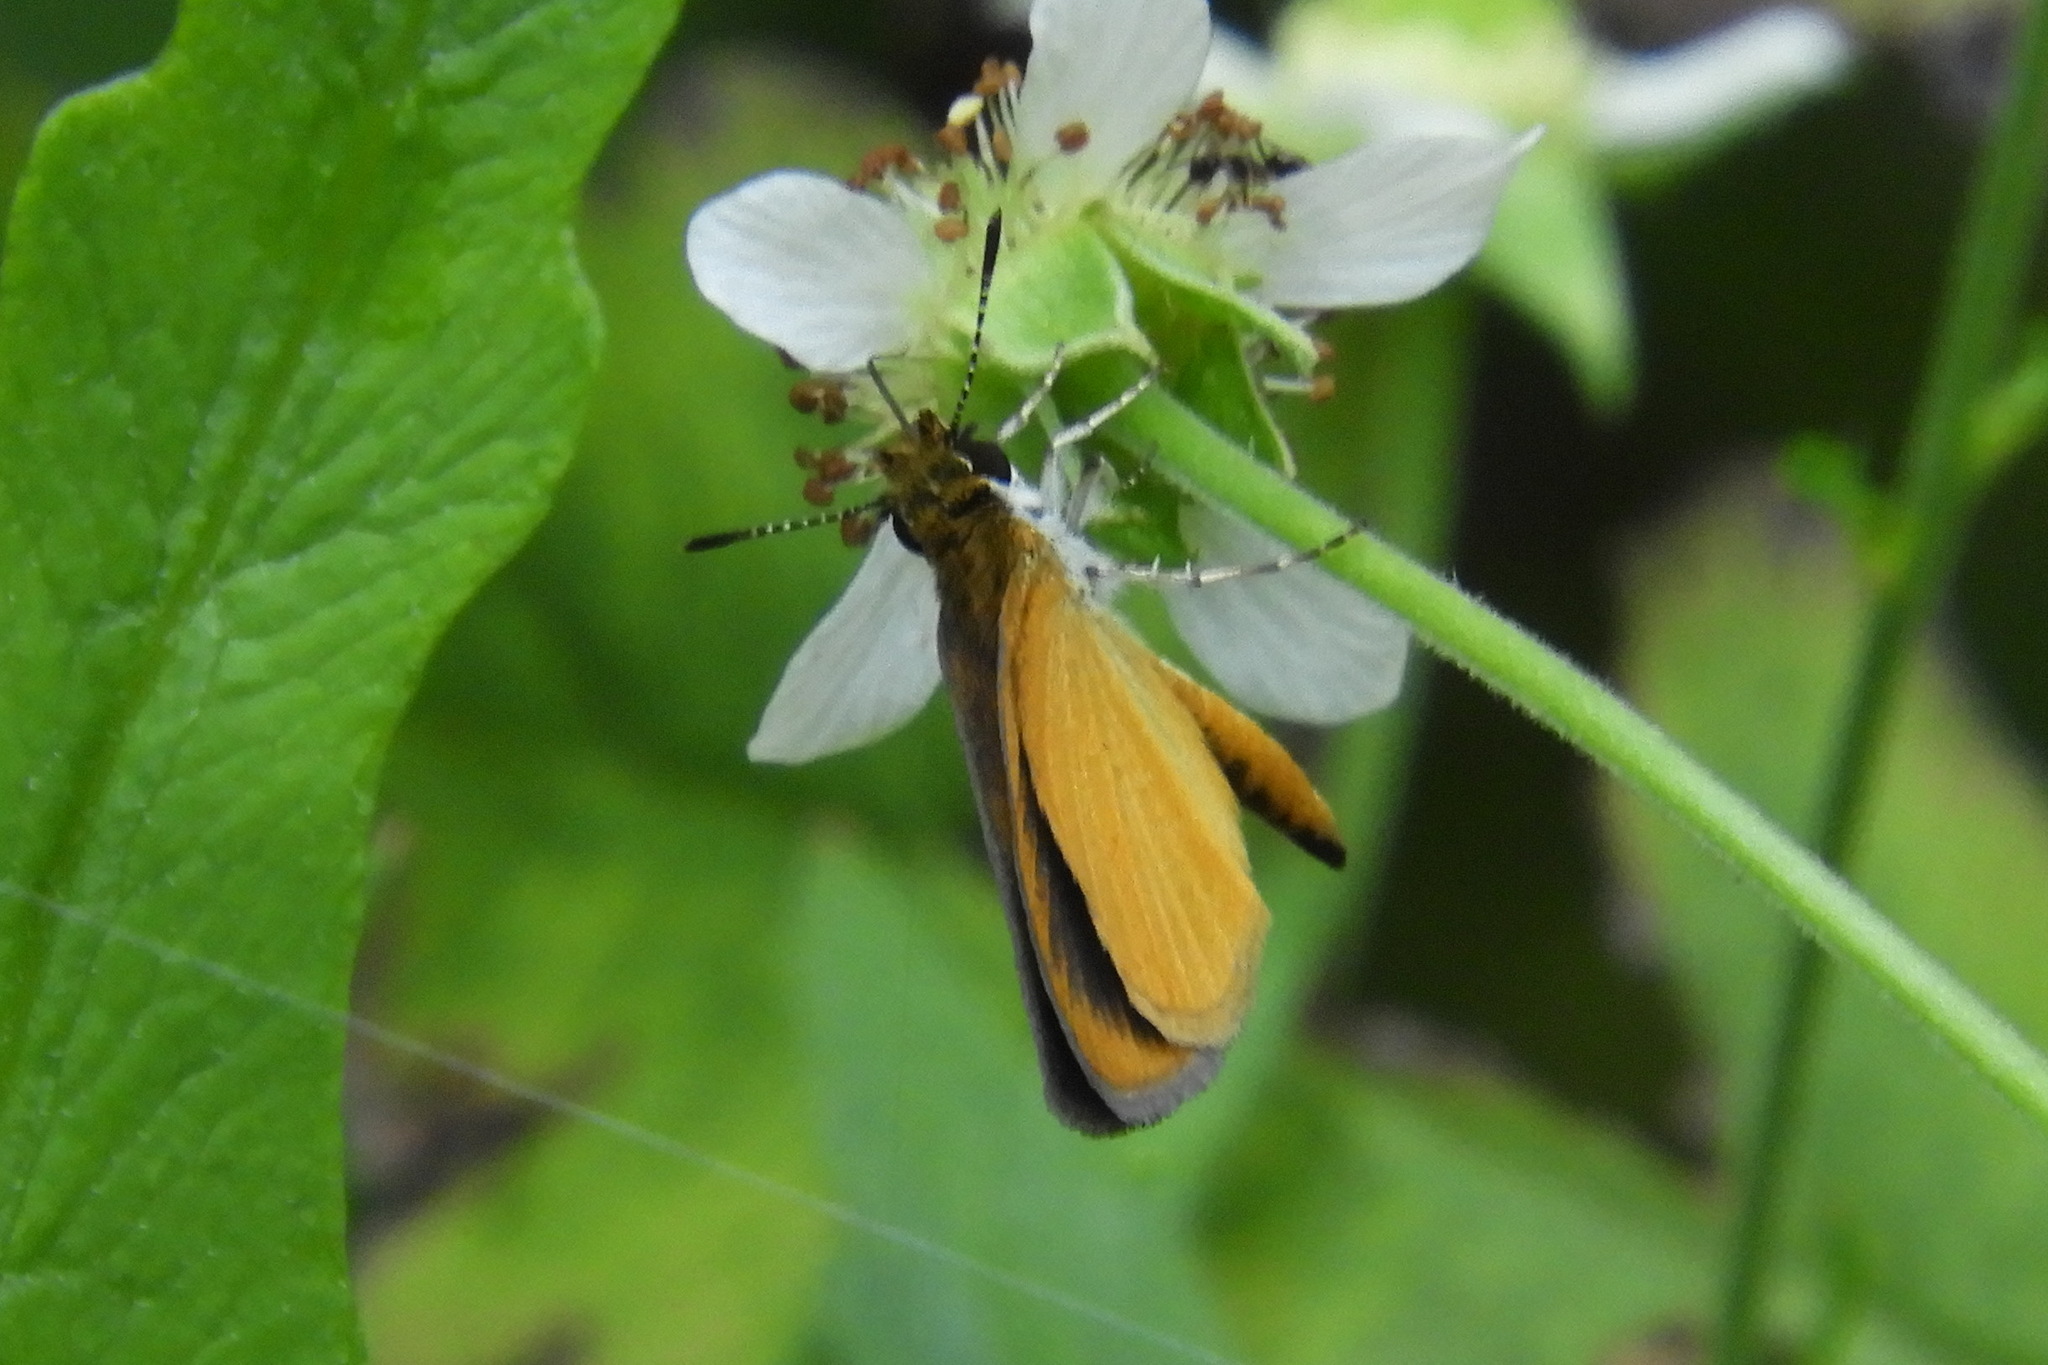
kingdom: Animalia
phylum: Arthropoda
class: Insecta
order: Lepidoptera
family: Hesperiidae
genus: Ancyloxypha
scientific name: Ancyloxypha numitor
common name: Least skipper
